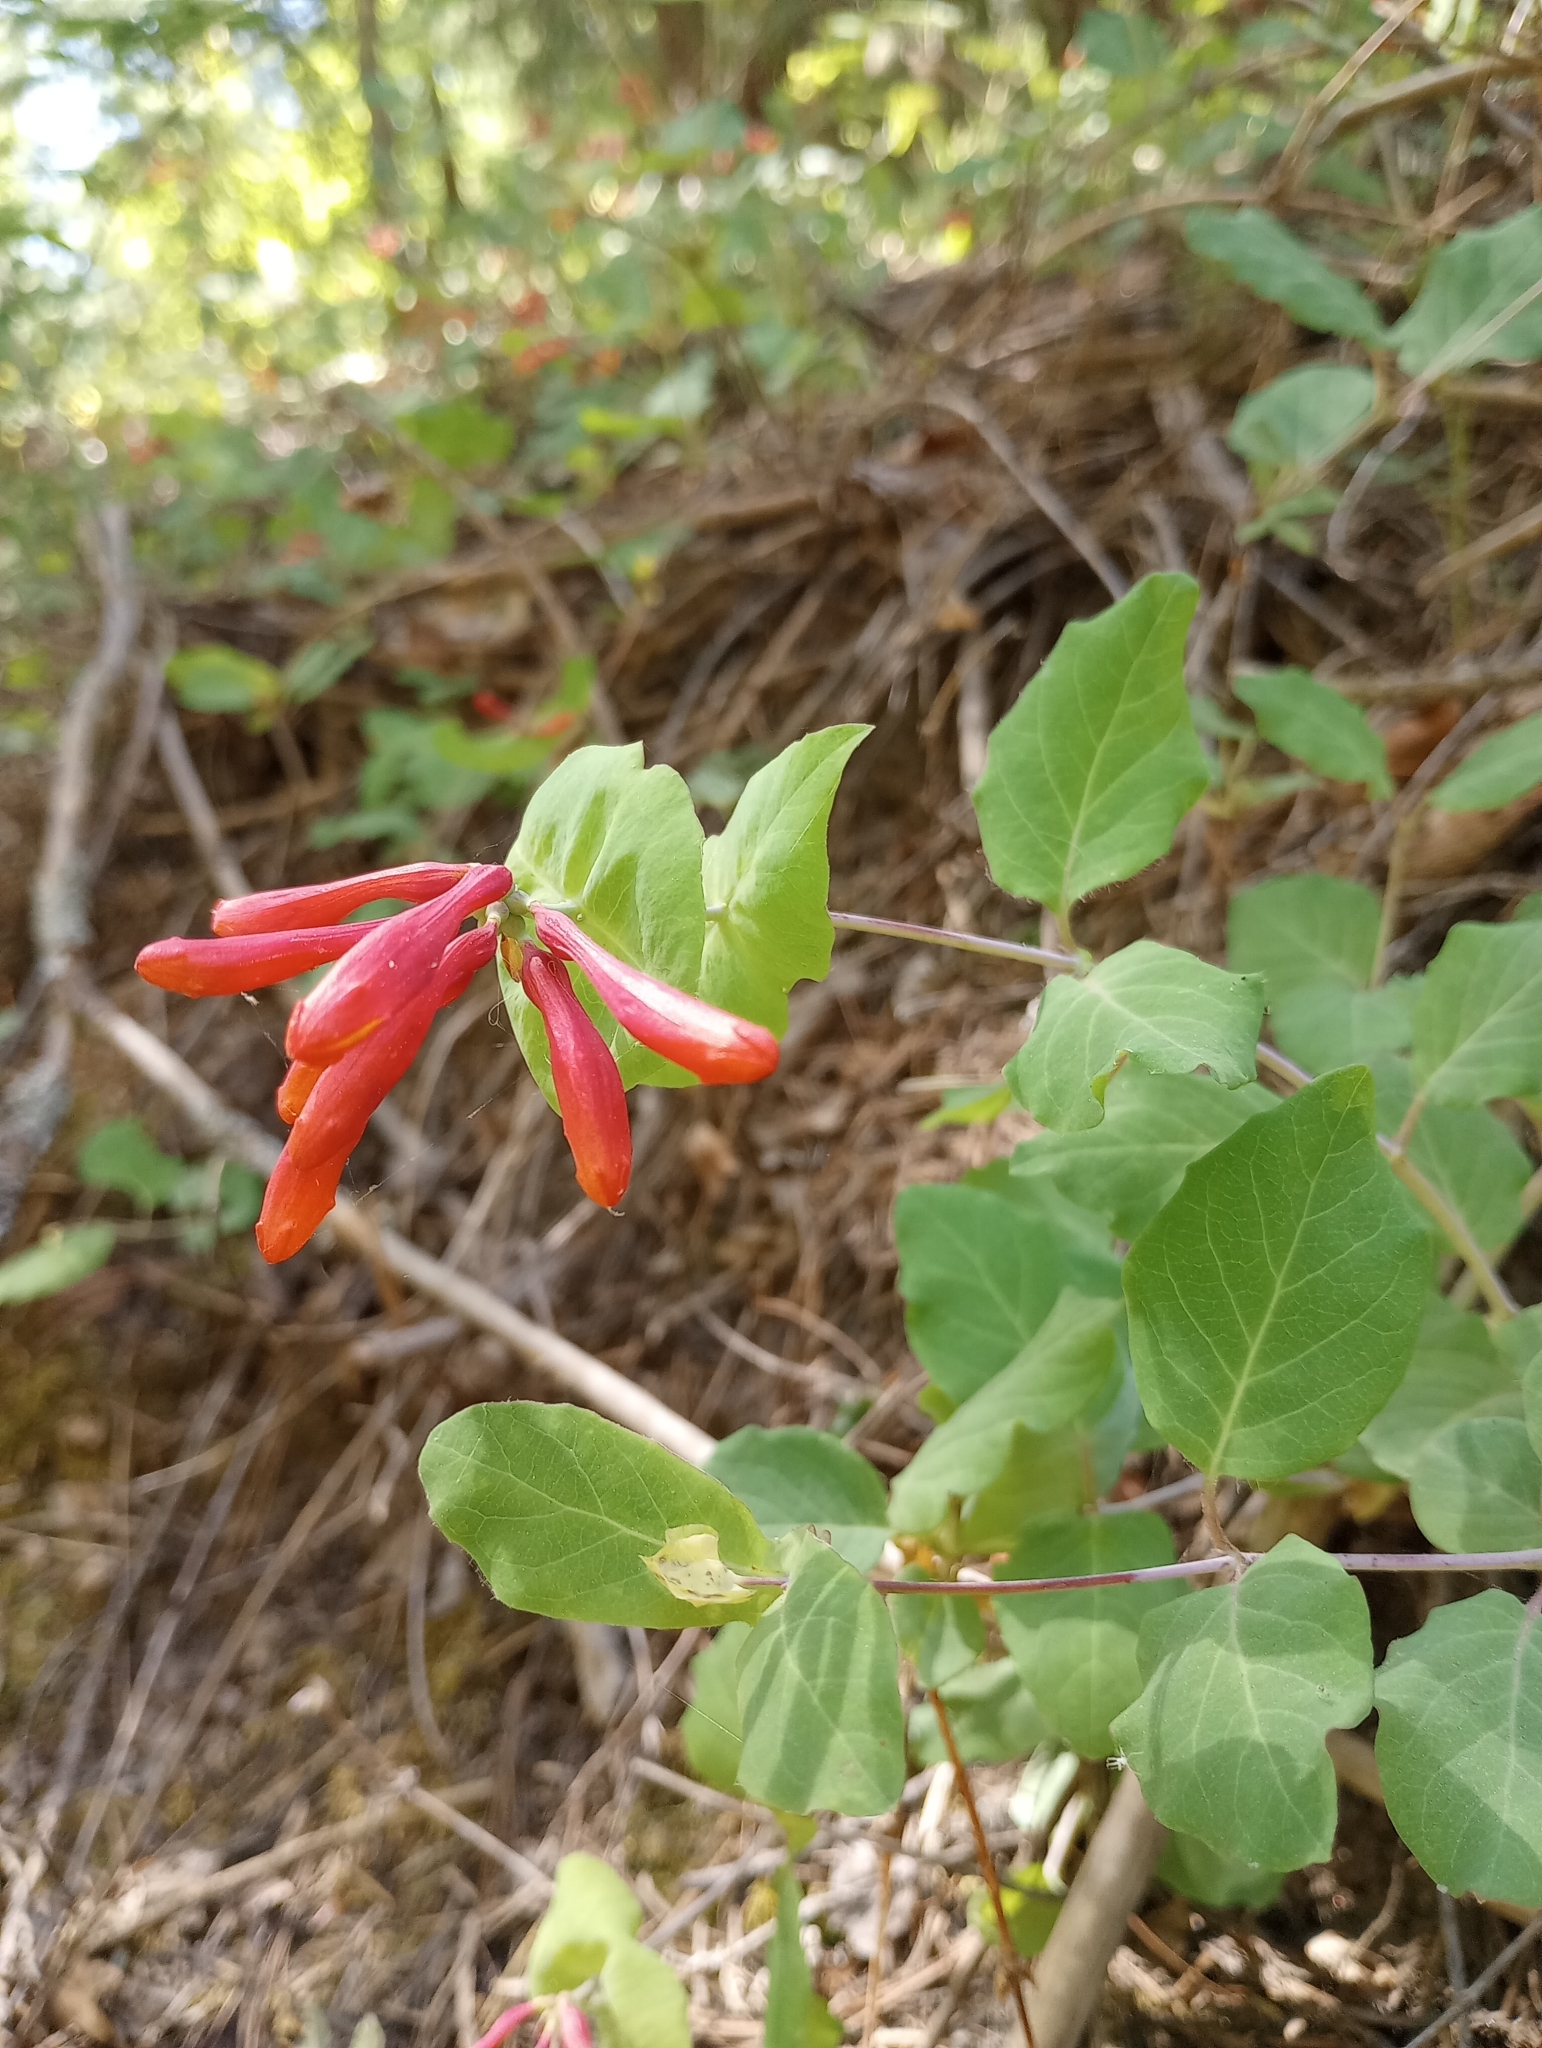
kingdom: Plantae
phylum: Tracheophyta
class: Magnoliopsida
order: Dipsacales
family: Caprifoliaceae
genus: Lonicera
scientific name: Lonicera arizonica
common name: Arizona honeysuckle
